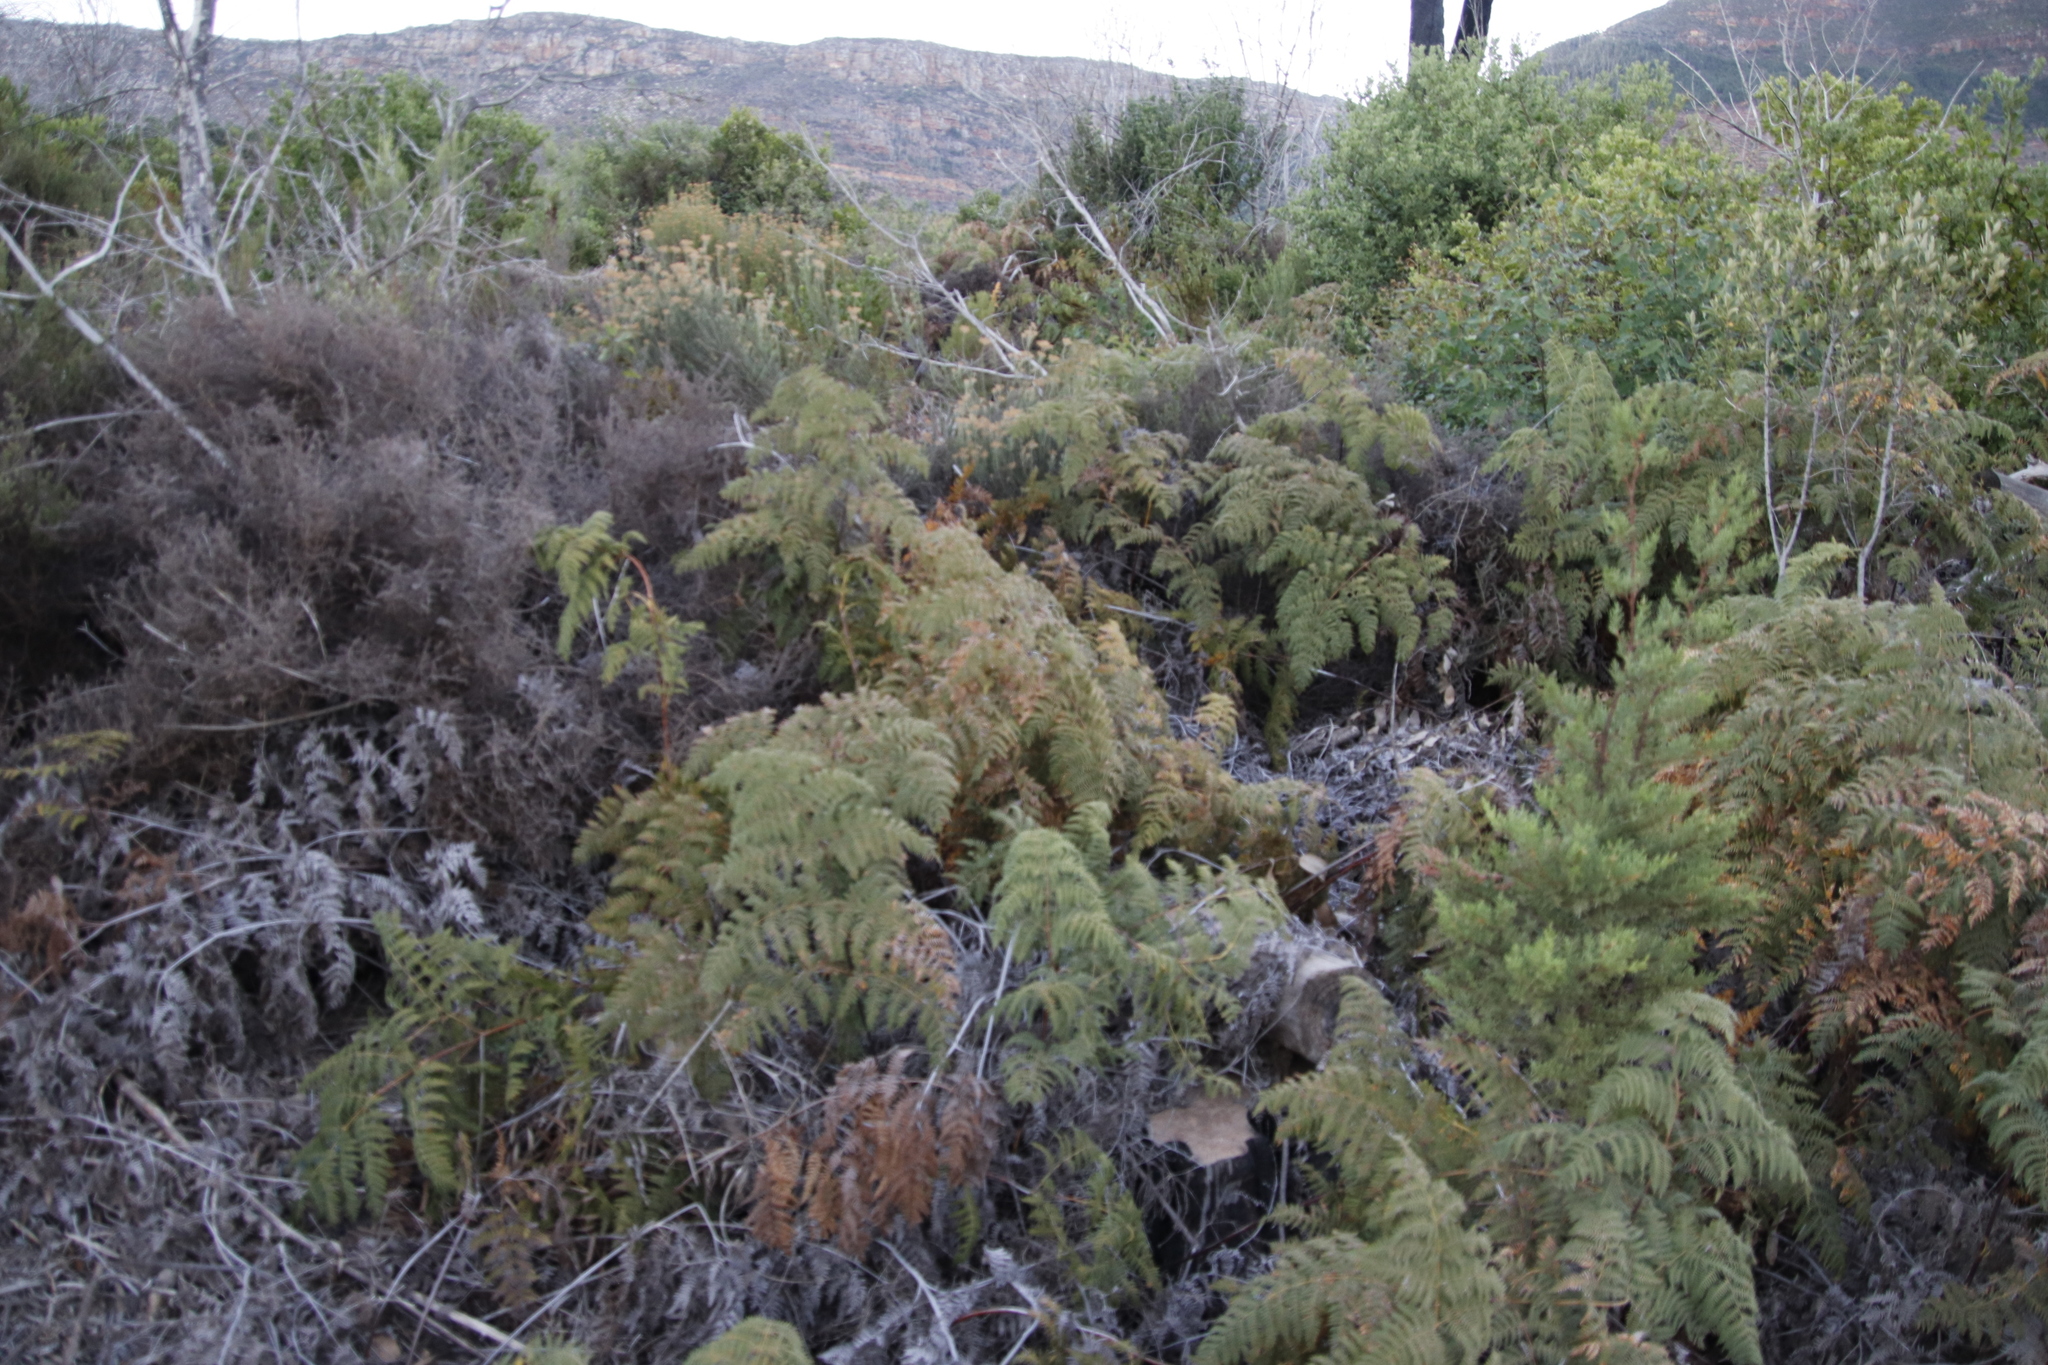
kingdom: Plantae
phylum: Tracheophyta
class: Polypodiopsida
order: Polypodiales
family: Dennstaedtiaceae
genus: Pteridium
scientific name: Pteridium aquilinum
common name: Bracken
